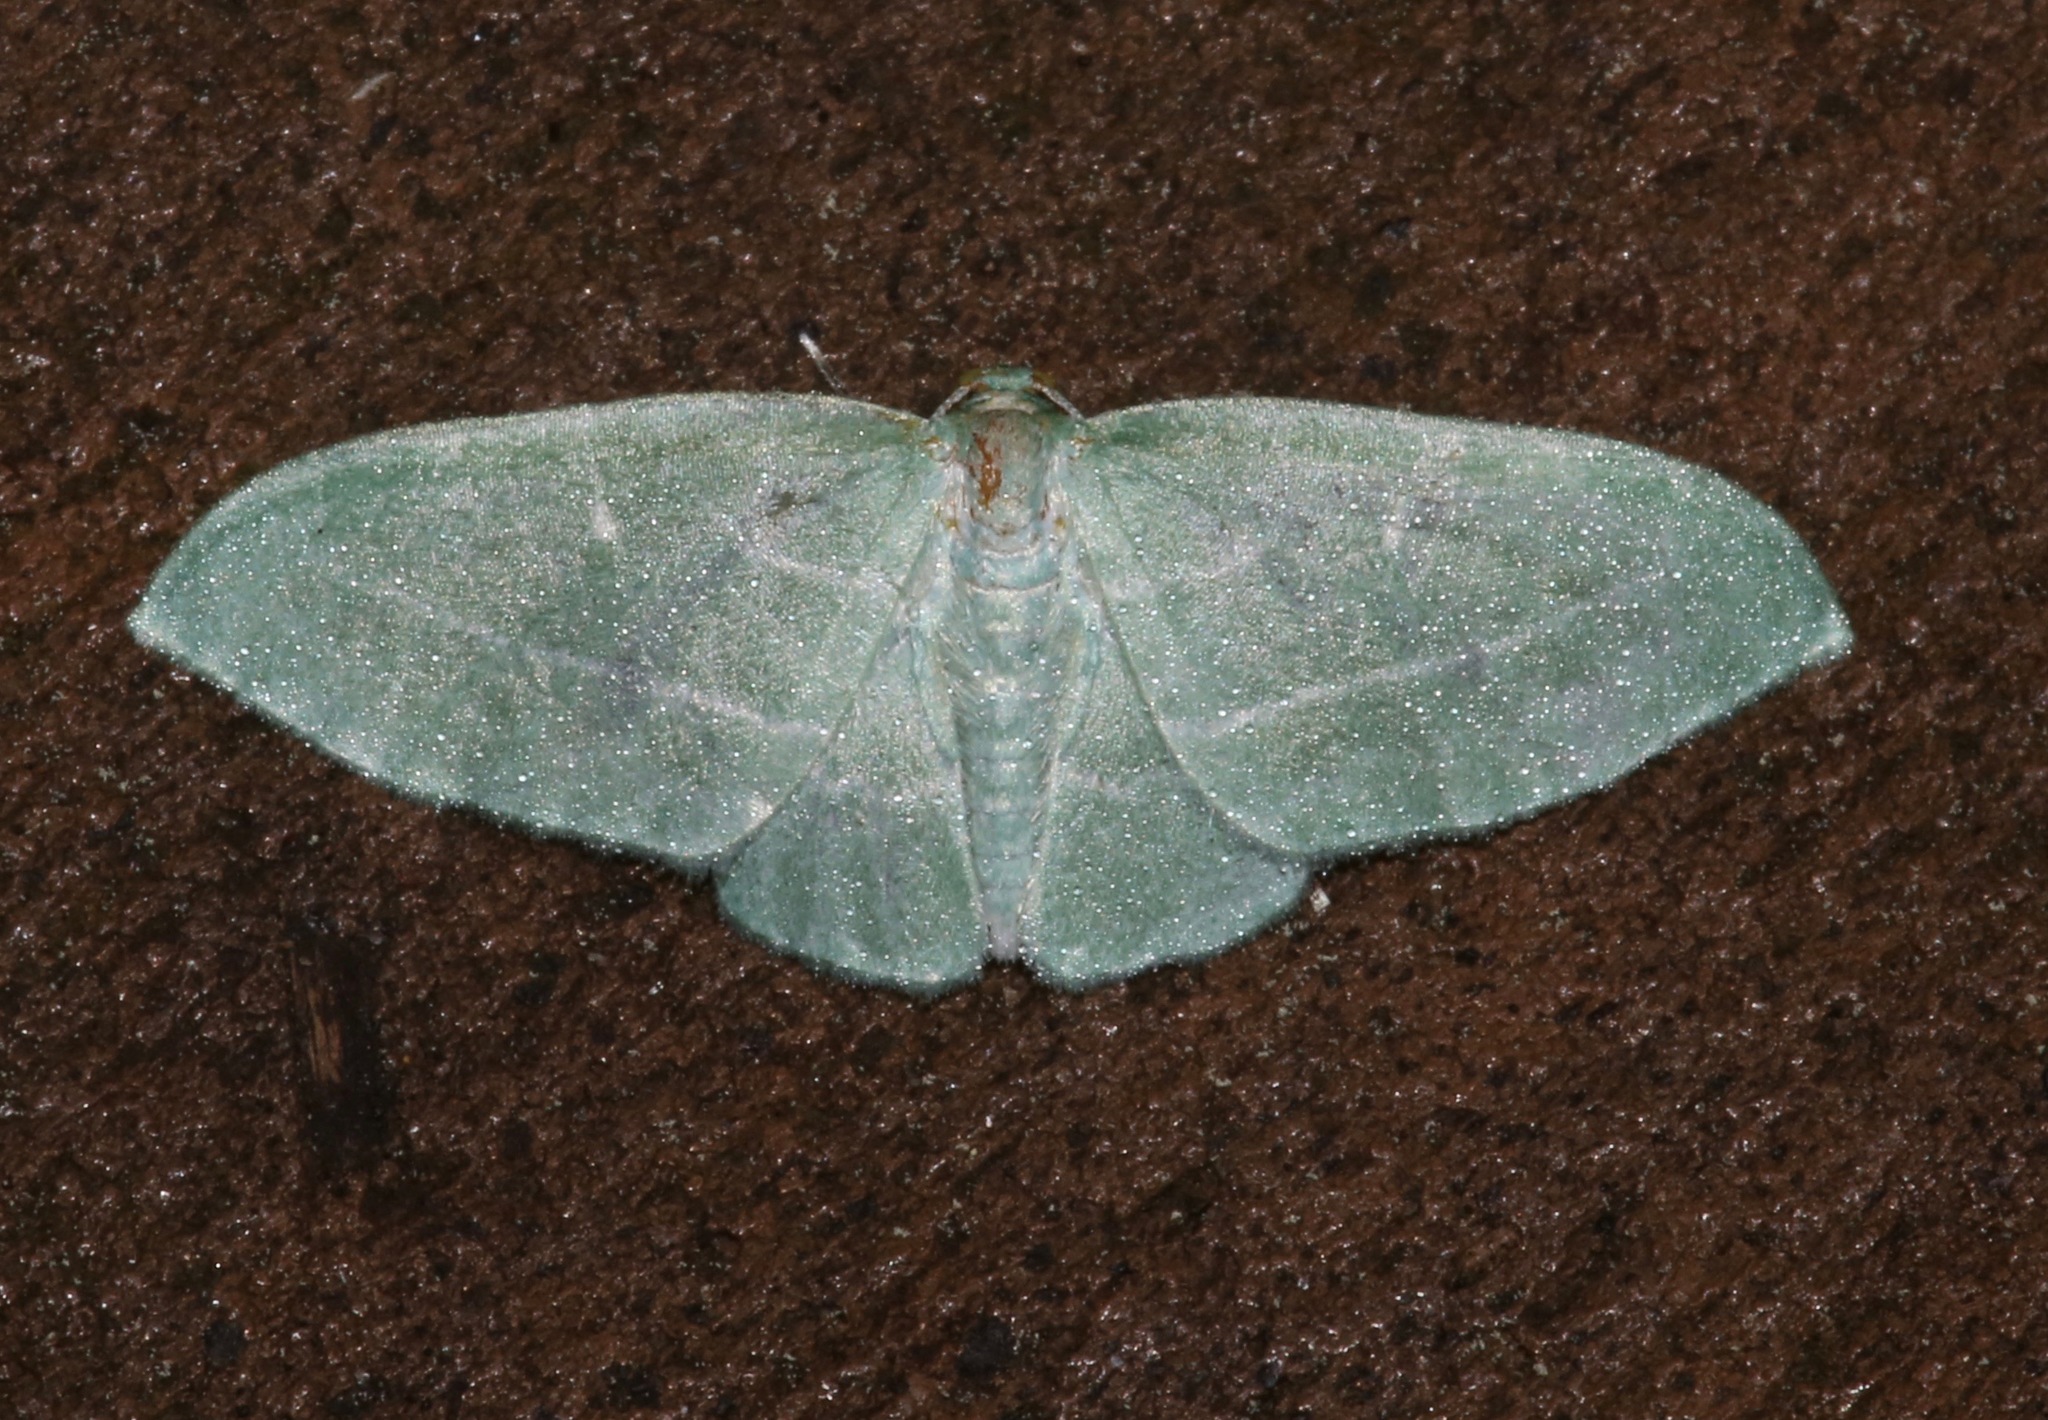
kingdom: Animalia
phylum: Arthropoda
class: Insecta
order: Lepidoptera
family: Geometridae
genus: Dyspteris
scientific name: Dyspteris abortivaria
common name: Bad-wing
